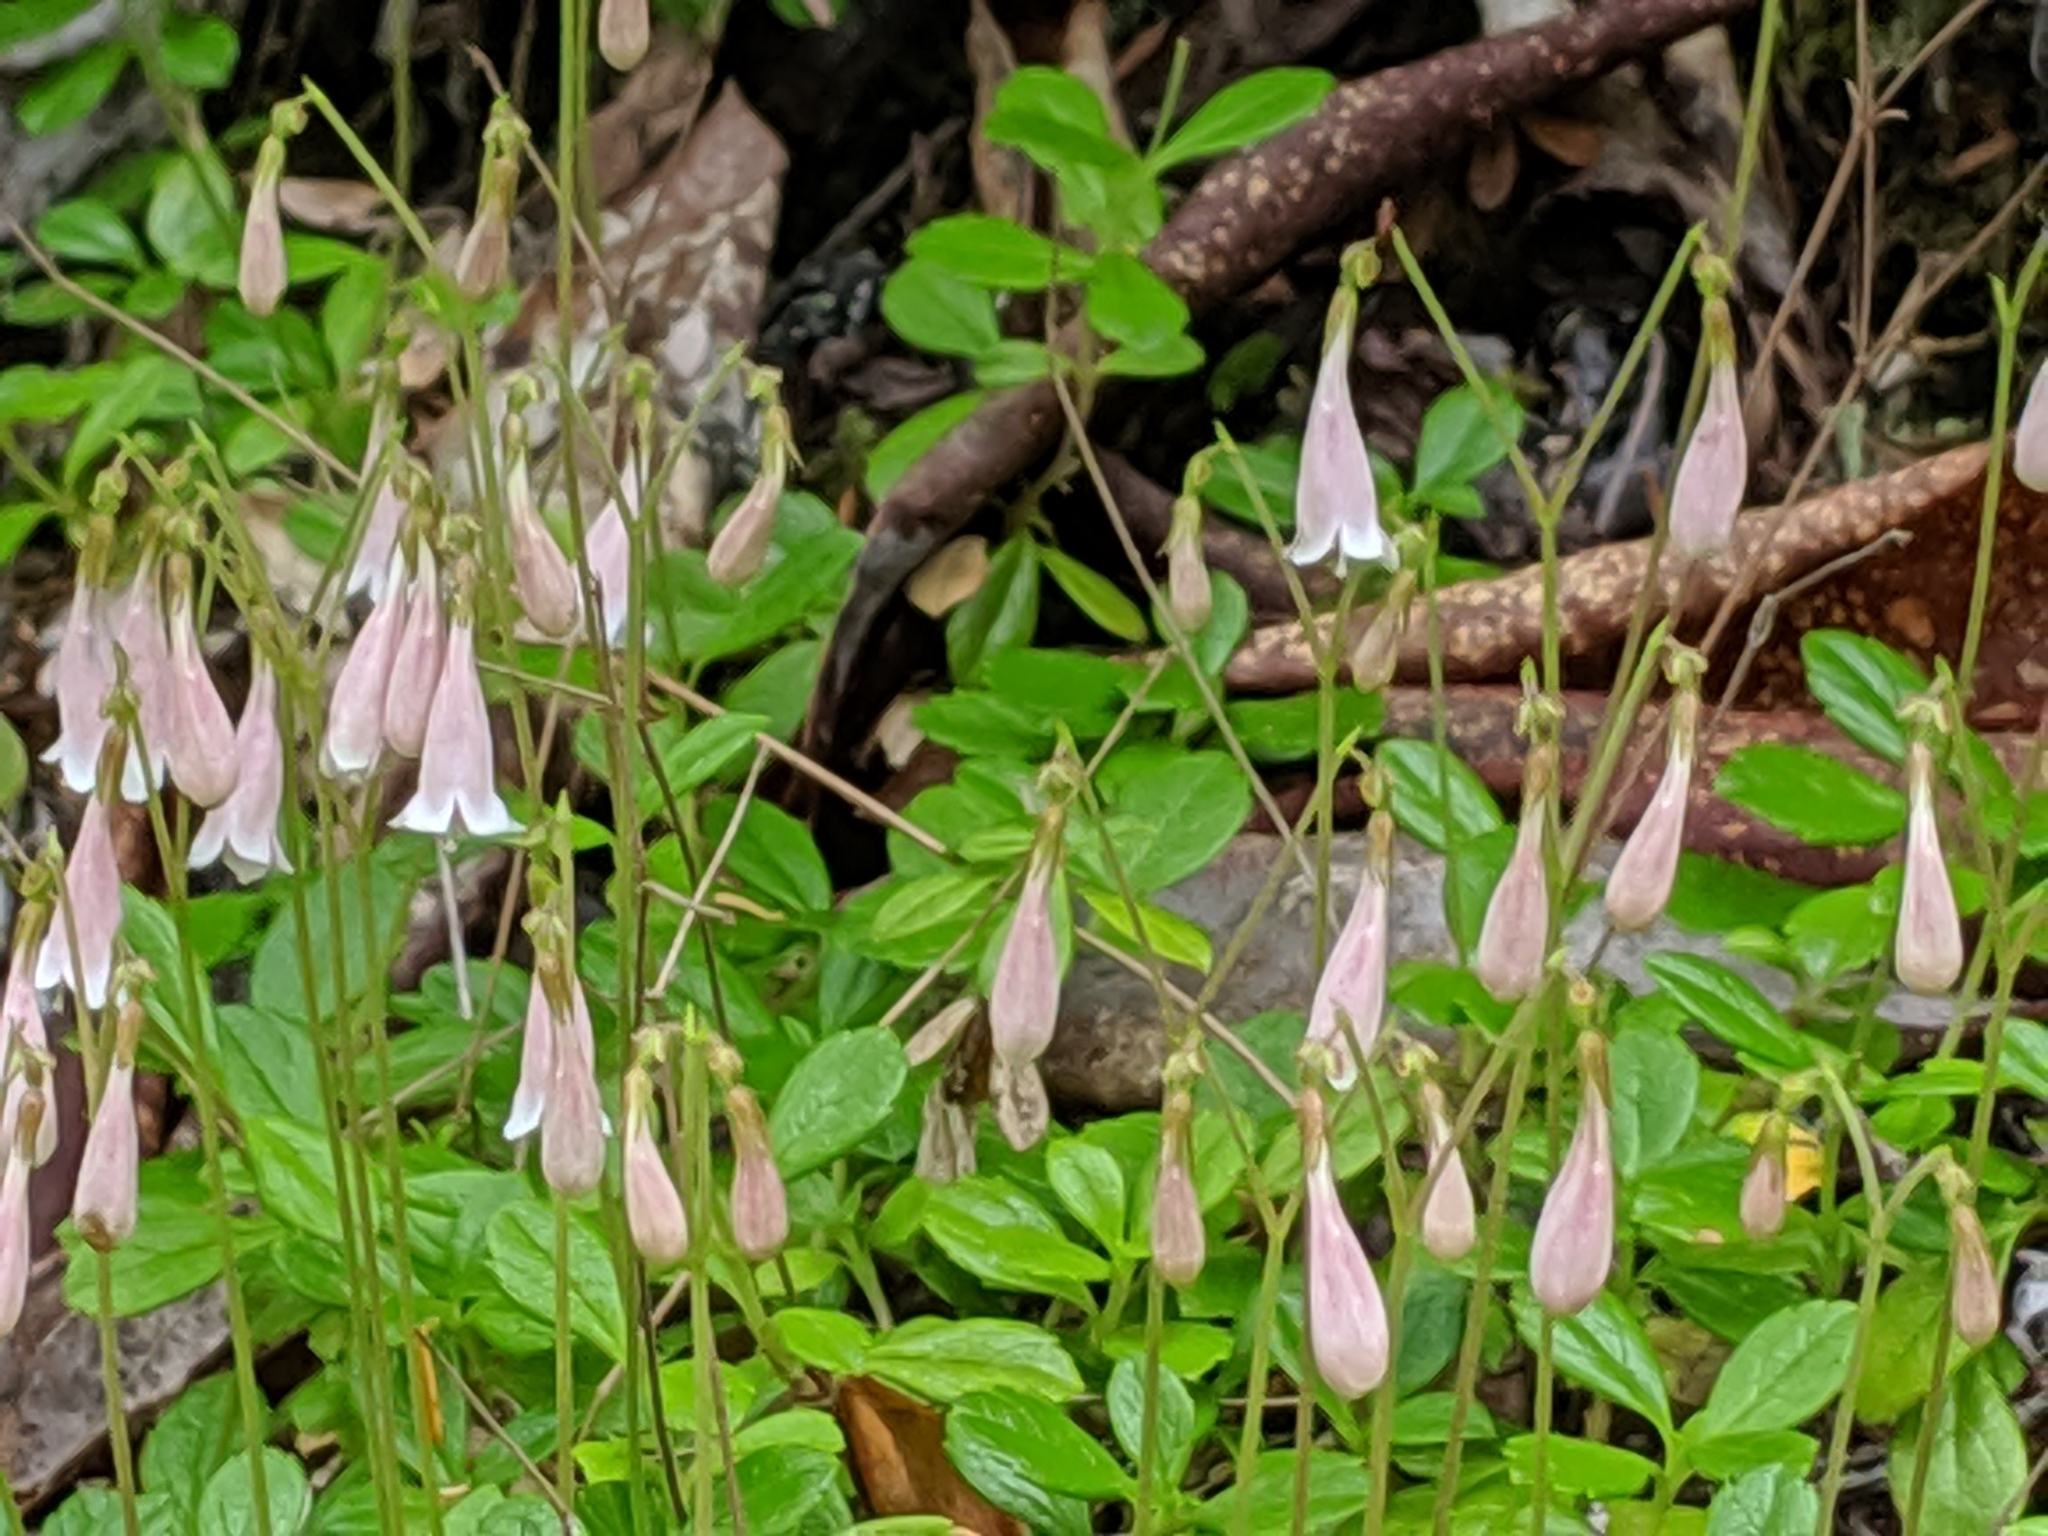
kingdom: Plantae
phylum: Tracheophyta
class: Magnoliopsida
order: Dipsacales
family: Caprifoliaceae
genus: Linnaea
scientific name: Linnaea borealis
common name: Twinflower
